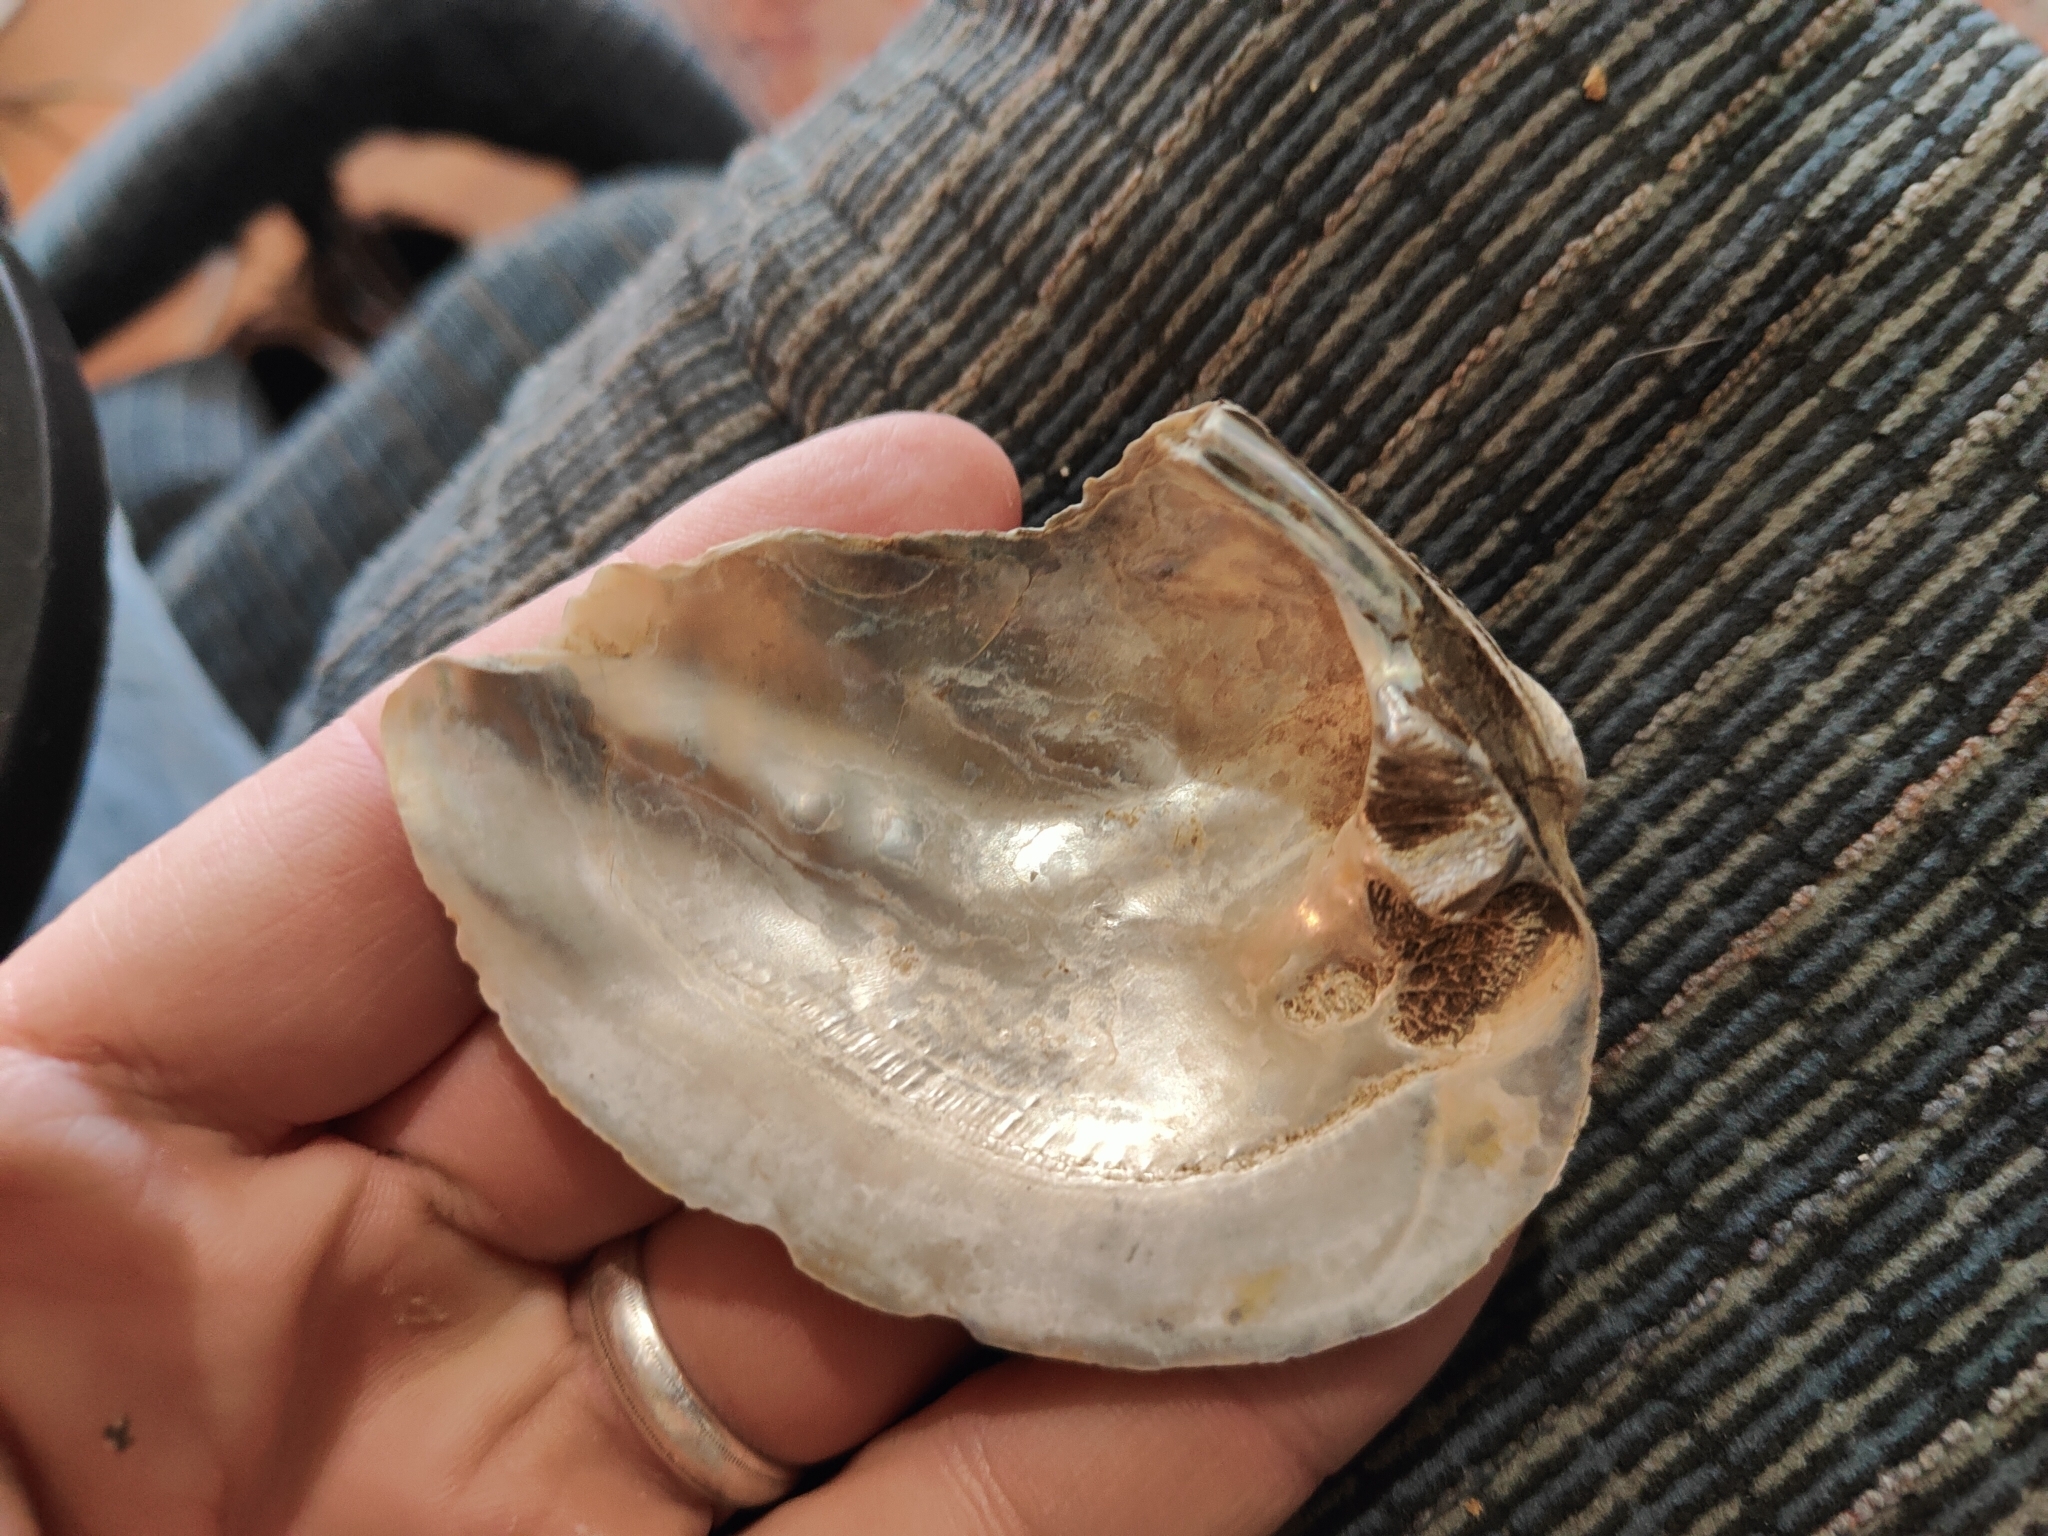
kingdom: Animalia
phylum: Mollusca
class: Bivalvia
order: Unionida
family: Unionidae
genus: Amblema
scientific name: Amblema plicata
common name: Threeridge
